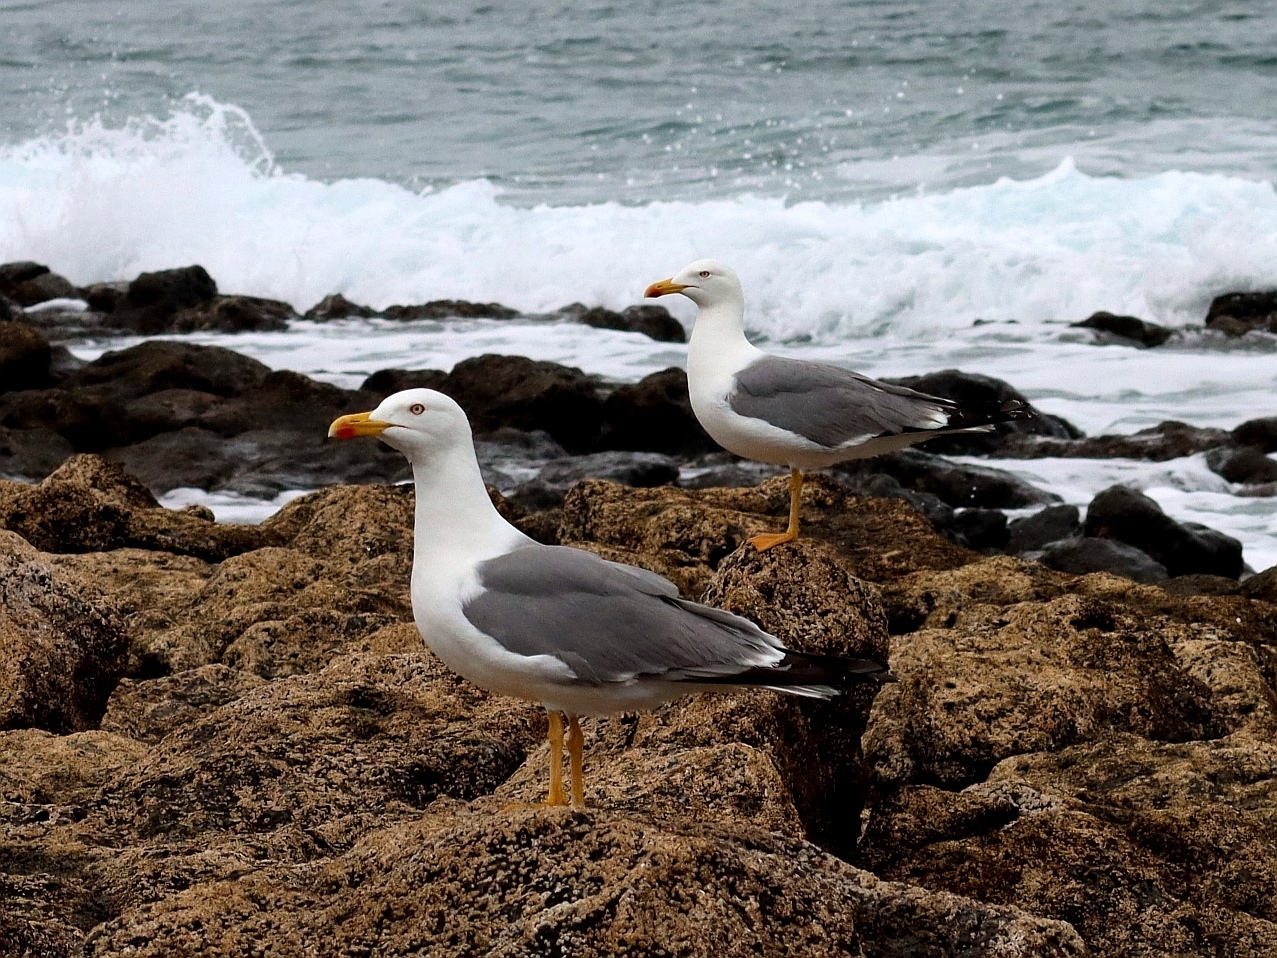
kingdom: Animalia
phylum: Chordata
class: Aves
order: Charadriiformes
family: Laridae
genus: Larus
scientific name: Larus fuscus
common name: Lesser black-backed gull
